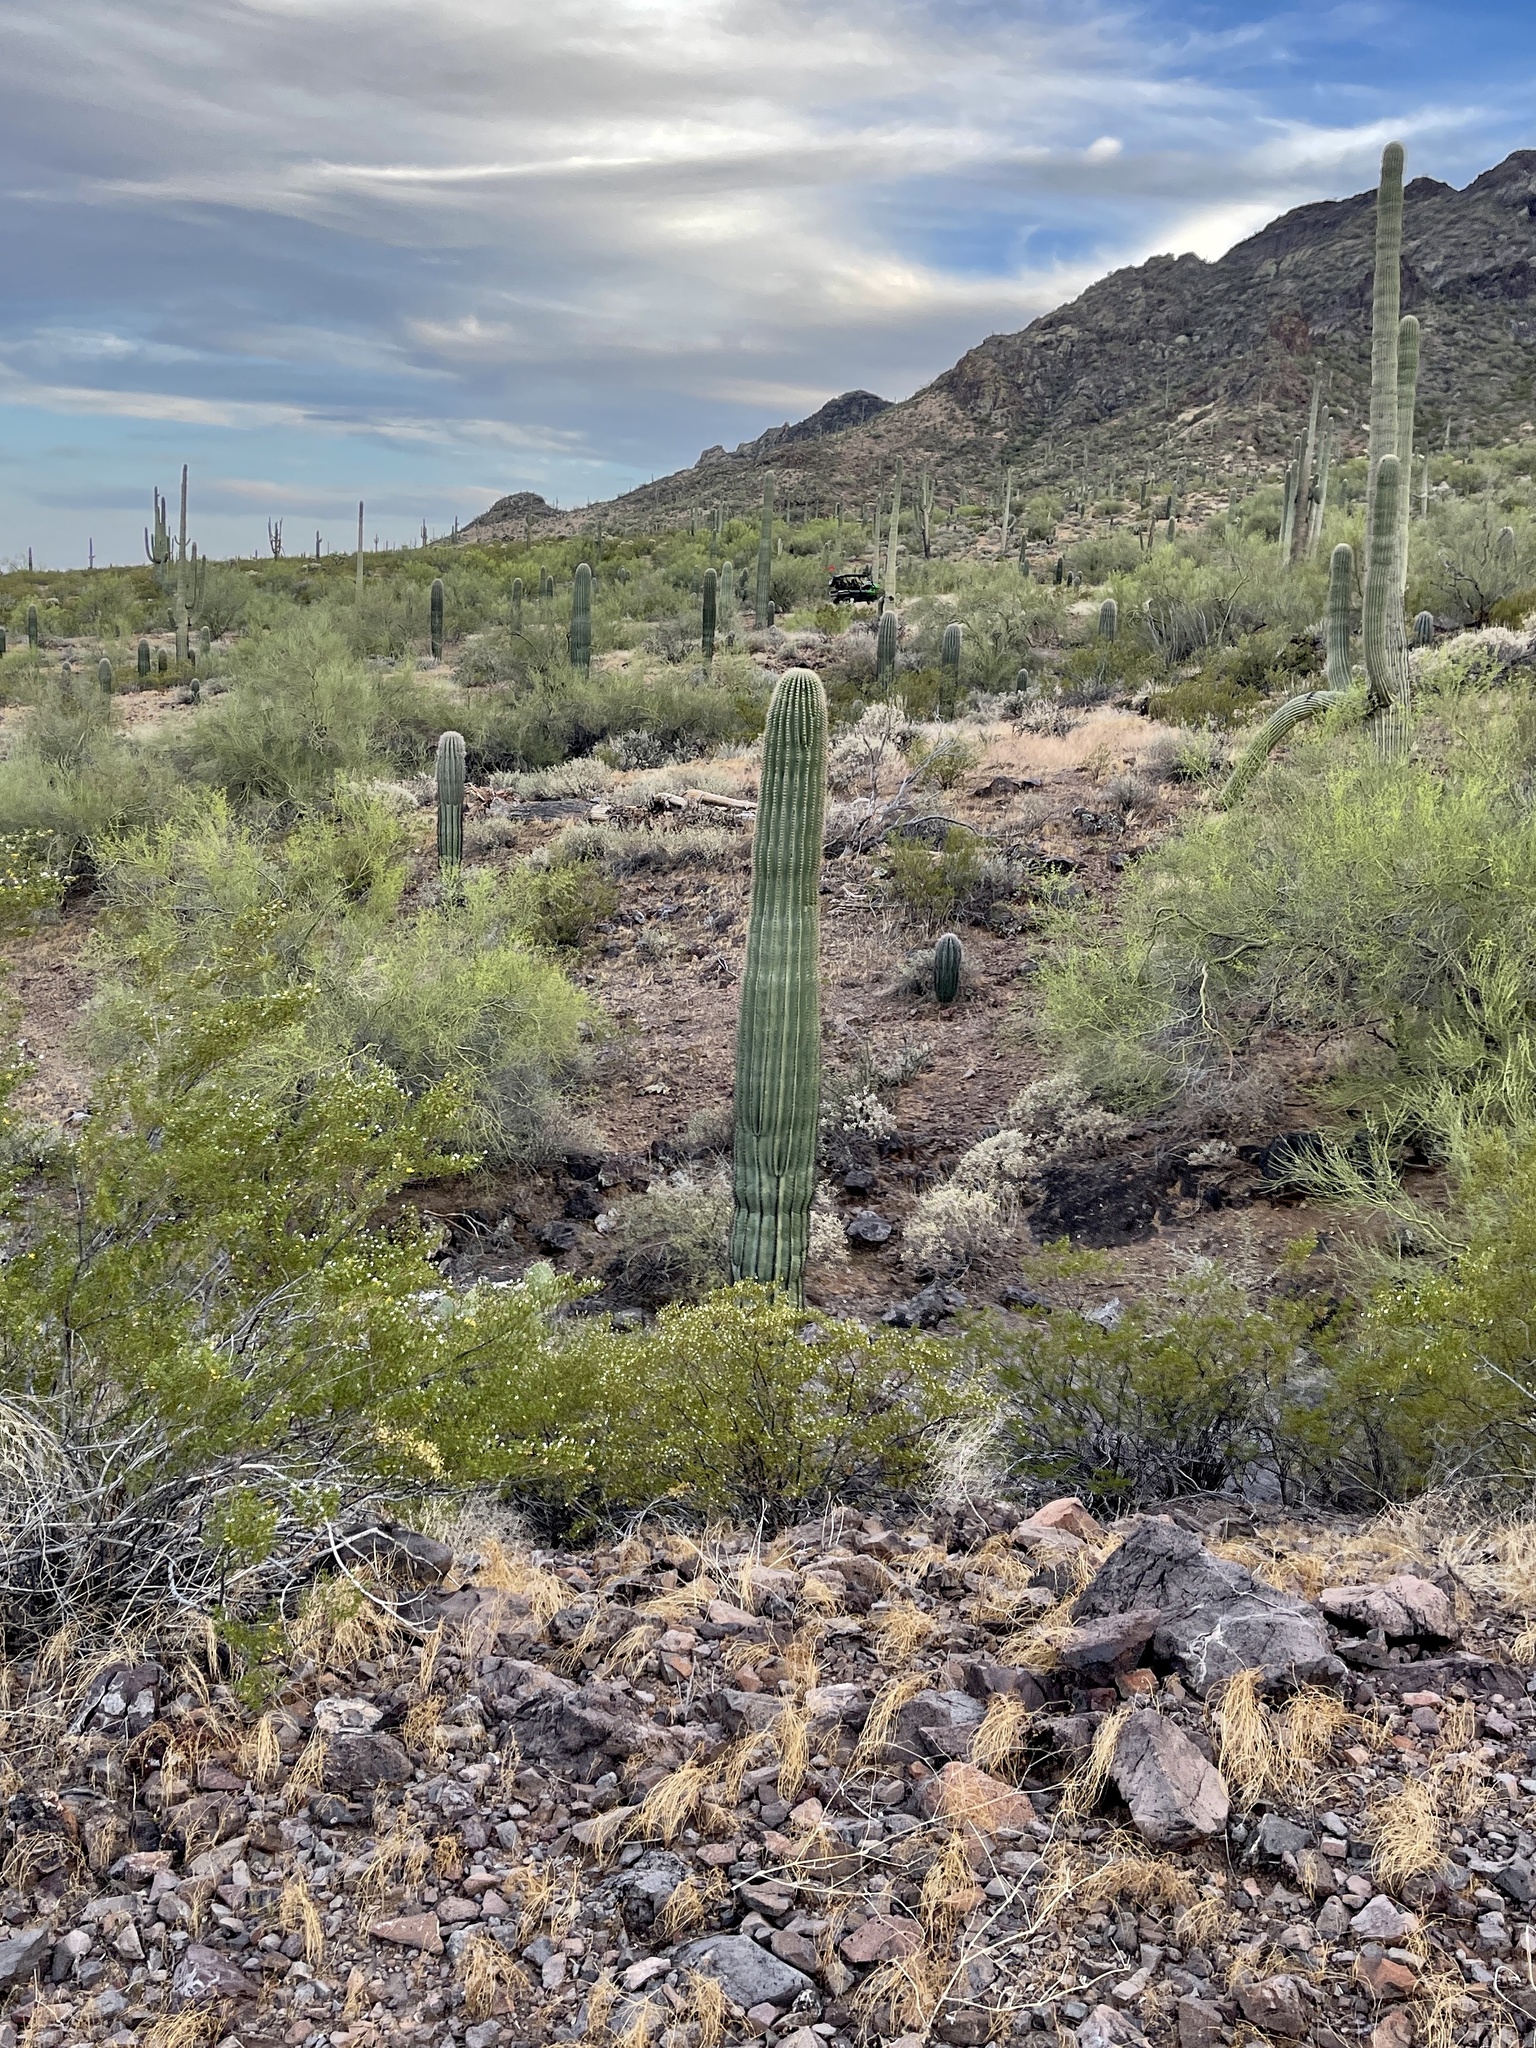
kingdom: Plantae
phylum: Tracheophyta
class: Magnoliopsida
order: Caryophyllales
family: Cactaceae
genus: Carnegiea
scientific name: Carnegiea gigantea
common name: Saguaro
